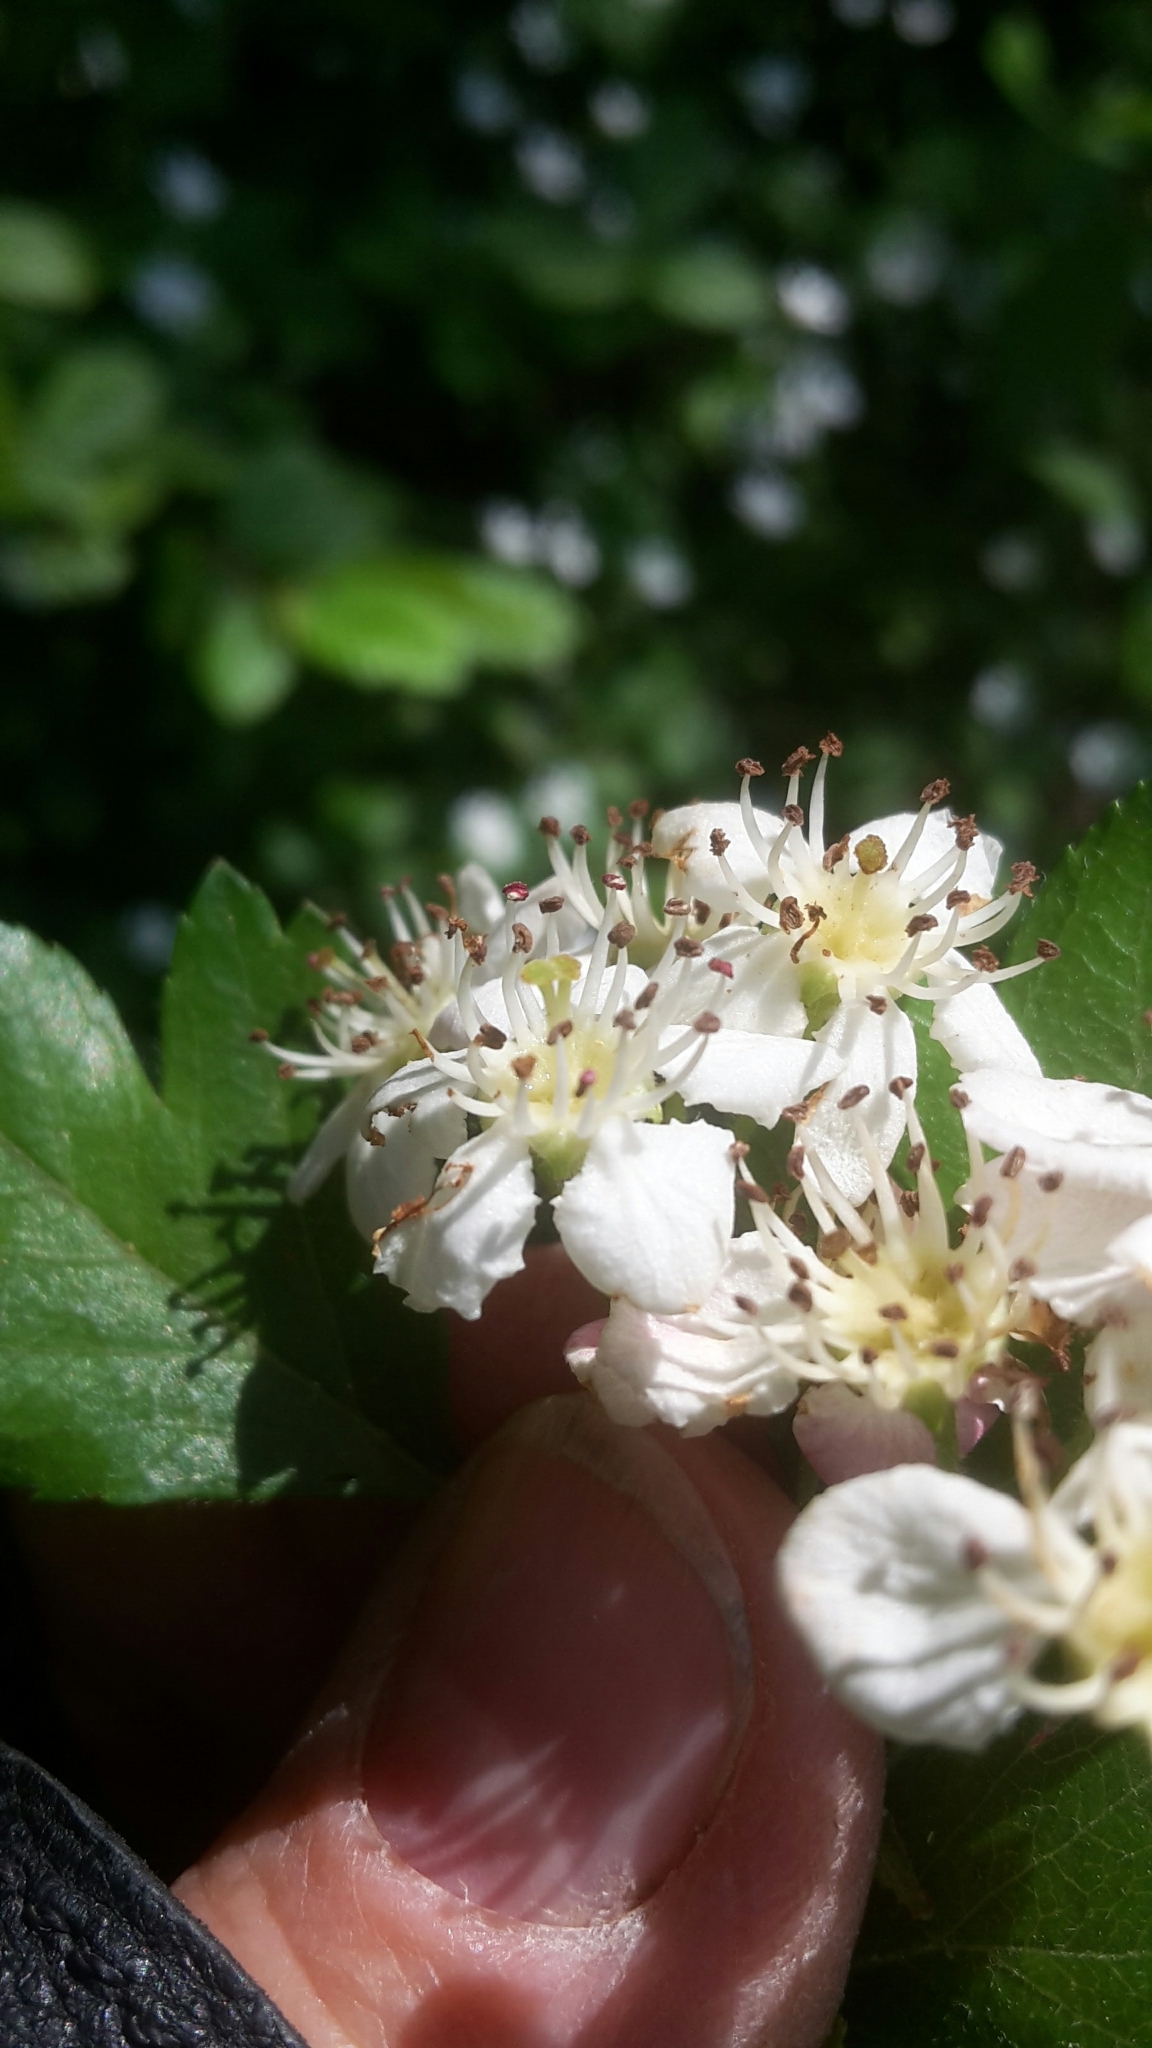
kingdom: Plantae
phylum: Tracheophyta
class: Magnoliopsida
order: Rosales
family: Rosaceae
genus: Crataegus
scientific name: Crataegus laevigata
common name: Midland hawthorn
